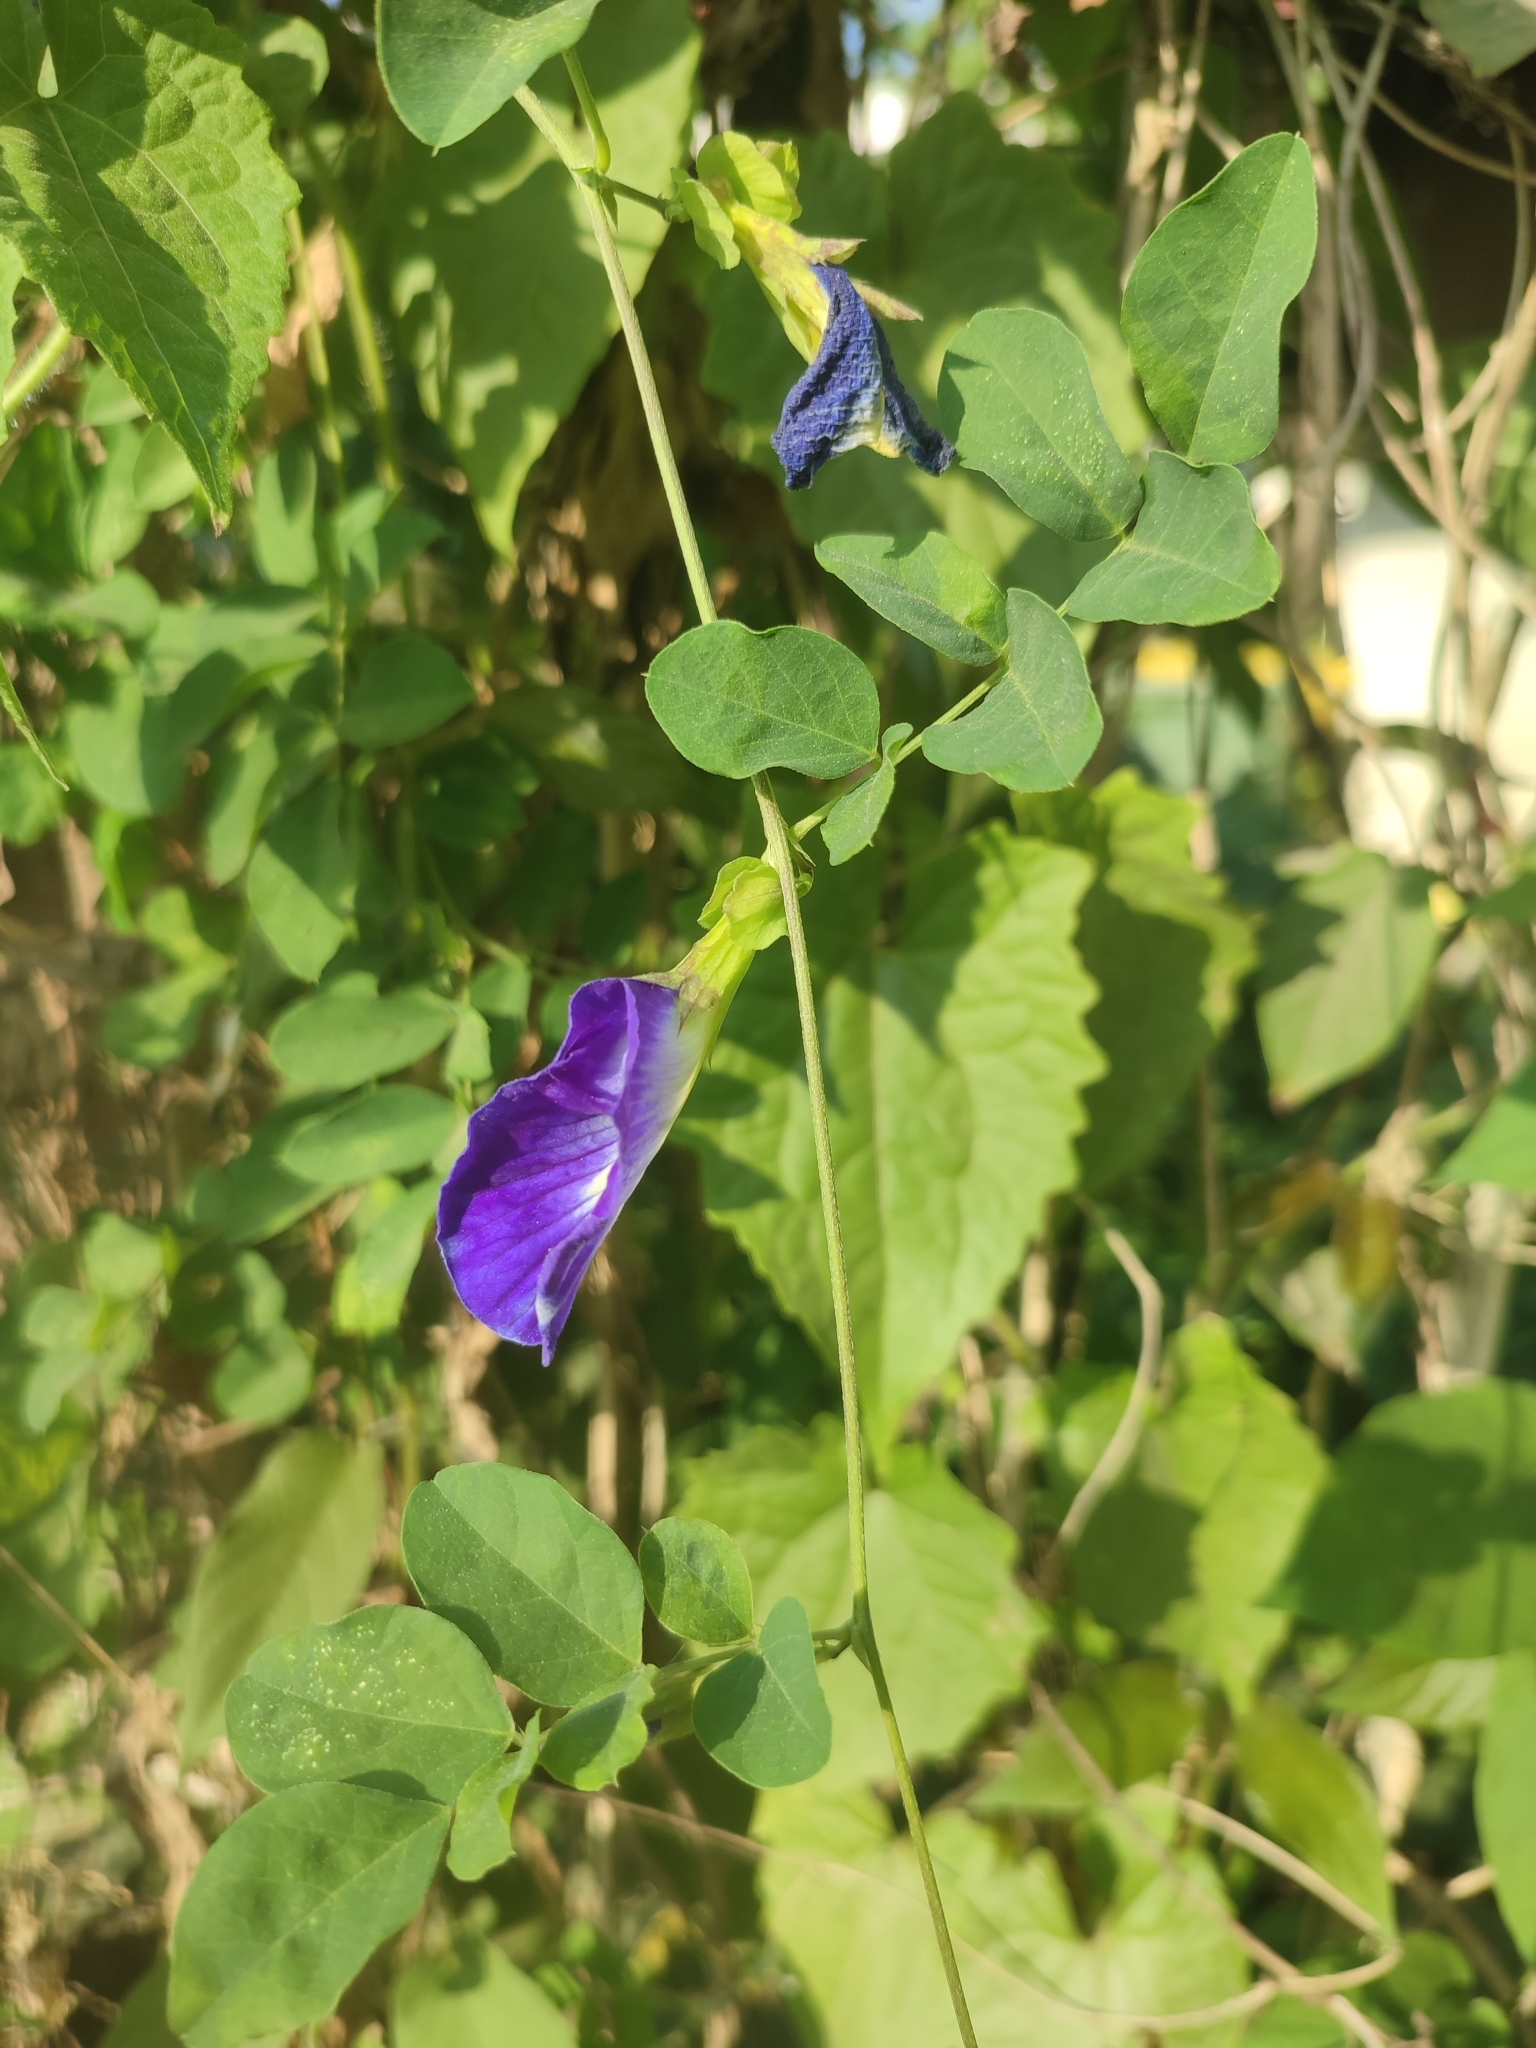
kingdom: Plantae
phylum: Tracheophyta
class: Magnoliopsida
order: Fabales
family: Fabaceae
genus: Clitoria
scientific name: Clitoria ternatea
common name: Asian pigeonwings
